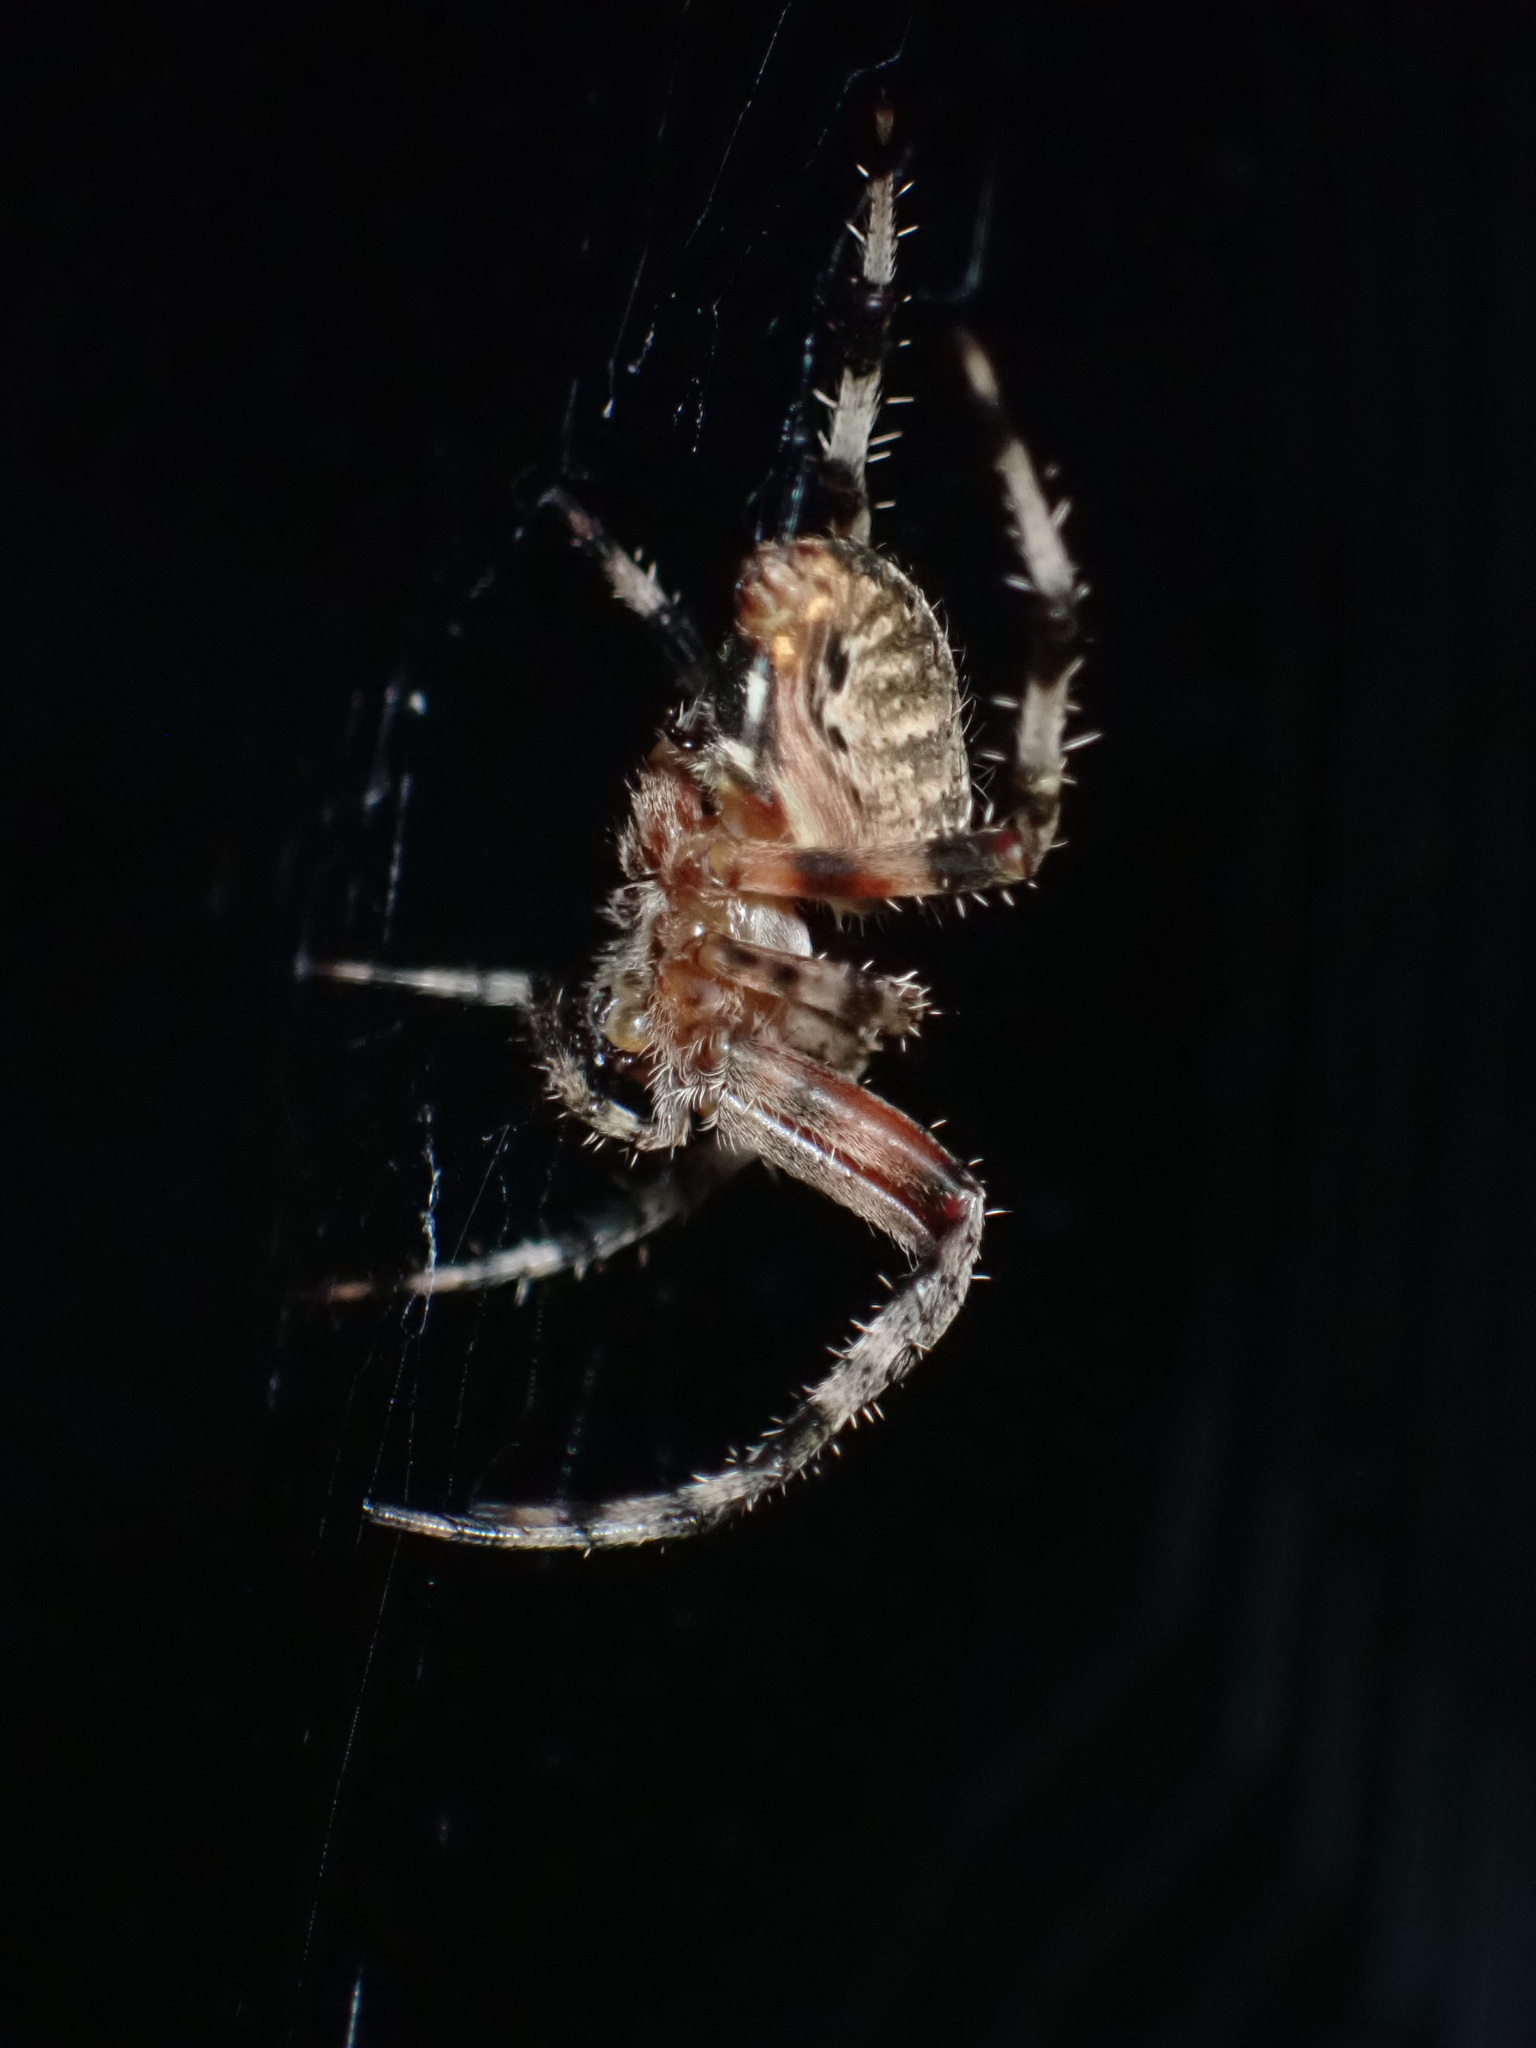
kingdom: Animalia
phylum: Arthropoda
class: Arachnida
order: Araneae
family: Araneidae
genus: Neoscona
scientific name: Neoscona crucifera
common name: Spotted orbweaver
